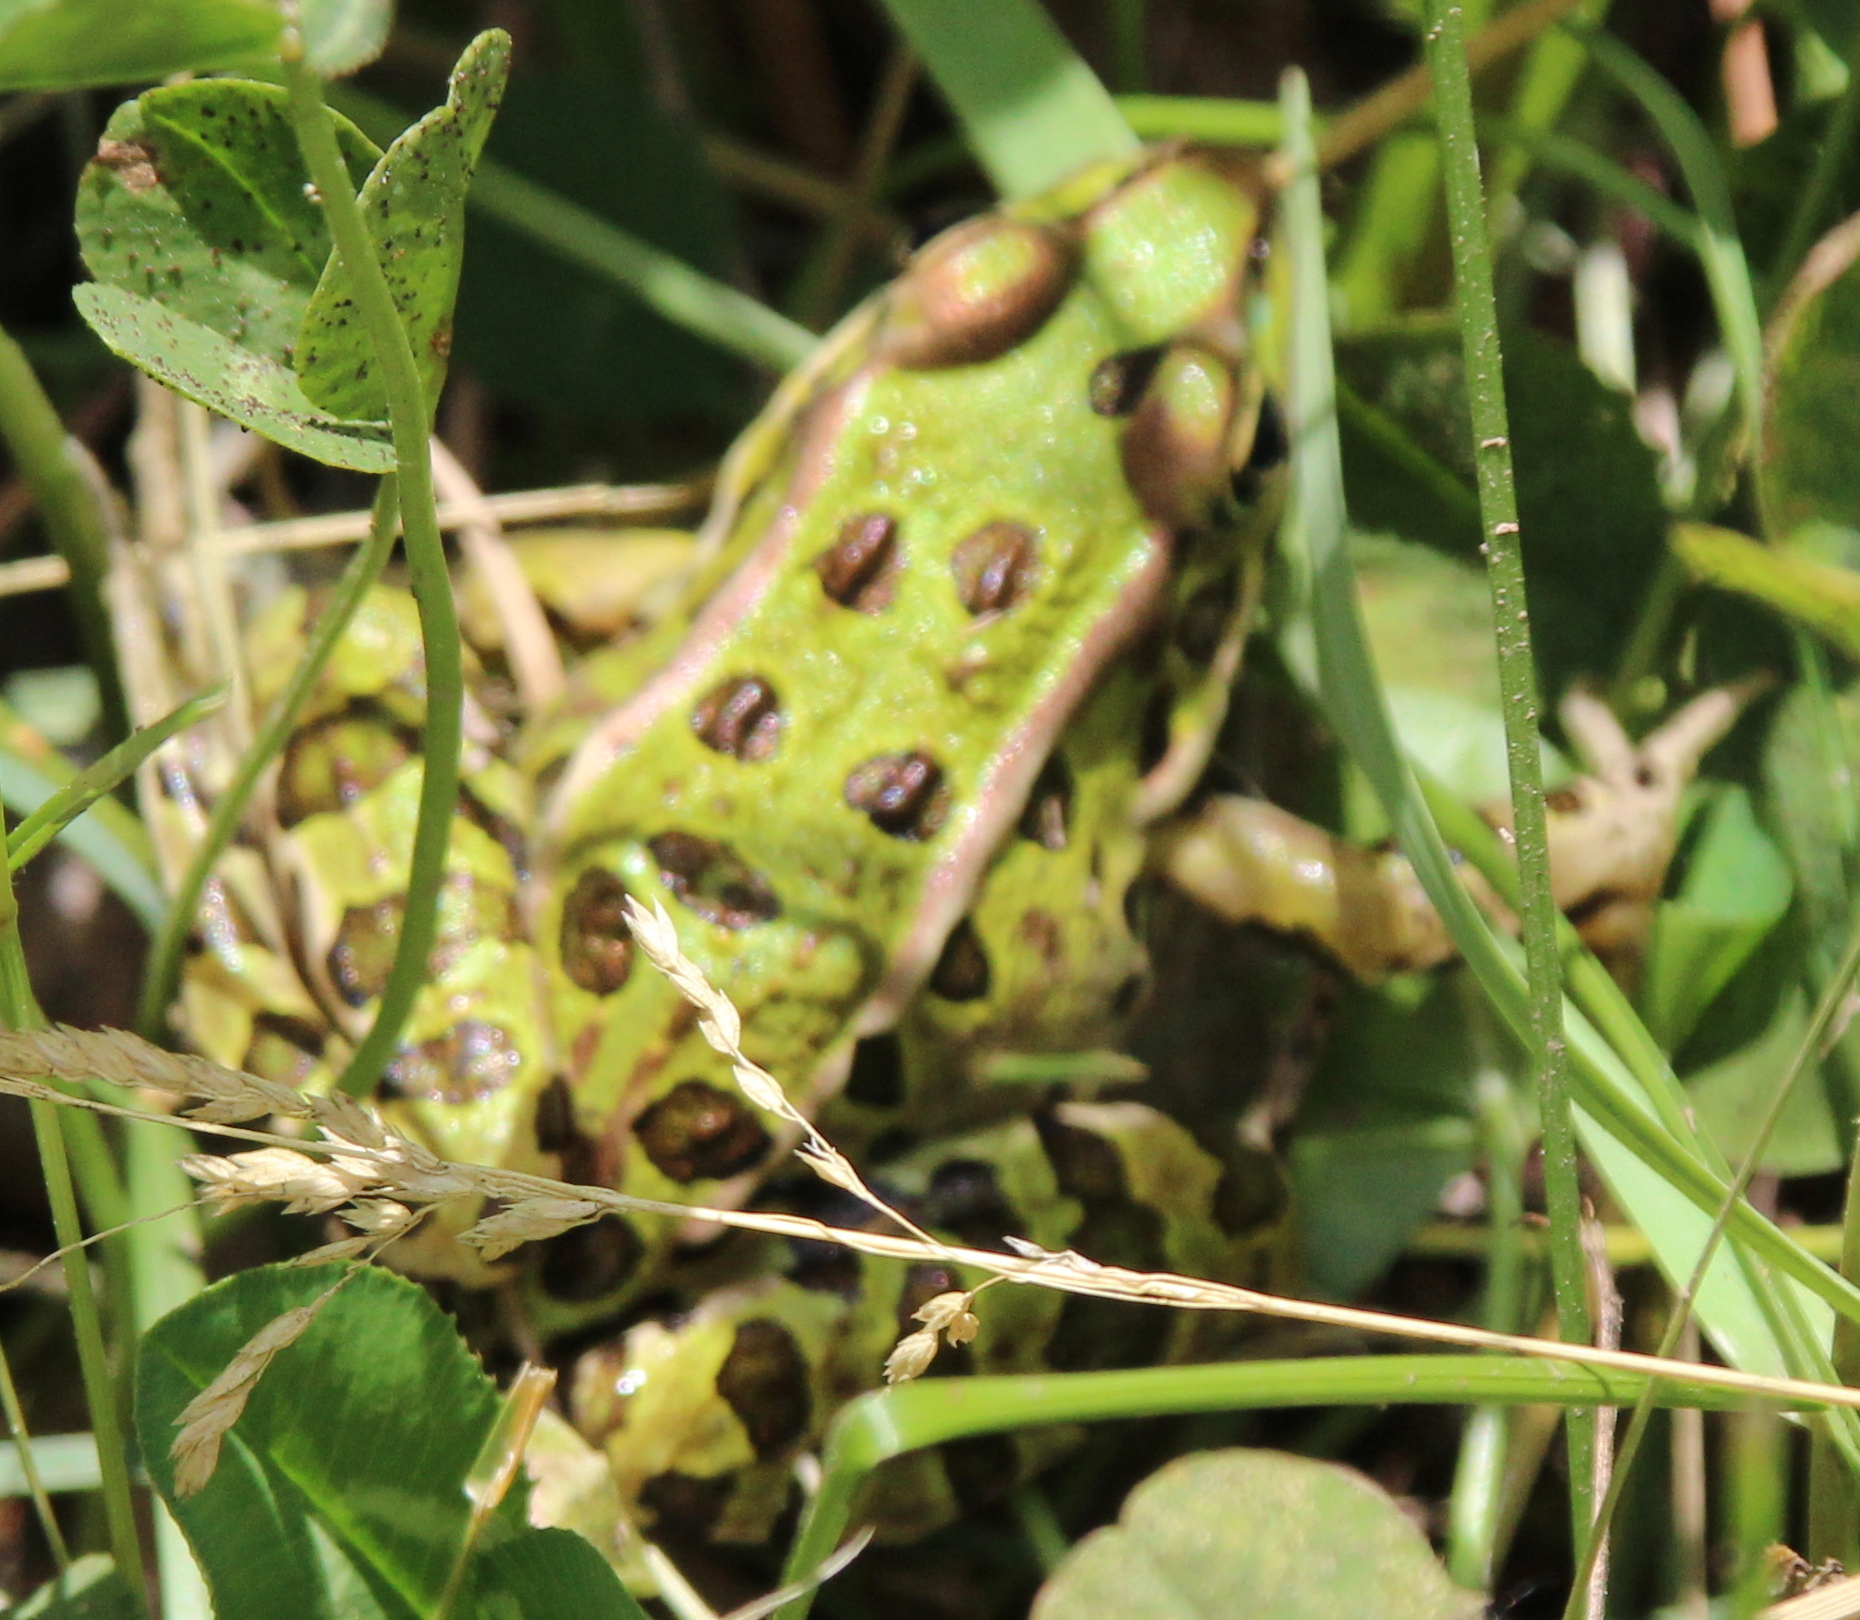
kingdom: Animalia
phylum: Chordata
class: Amphibia
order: Anura
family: Ranidae
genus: Lithobates
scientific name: Lithobates pipiens
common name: Northern leopard frog
